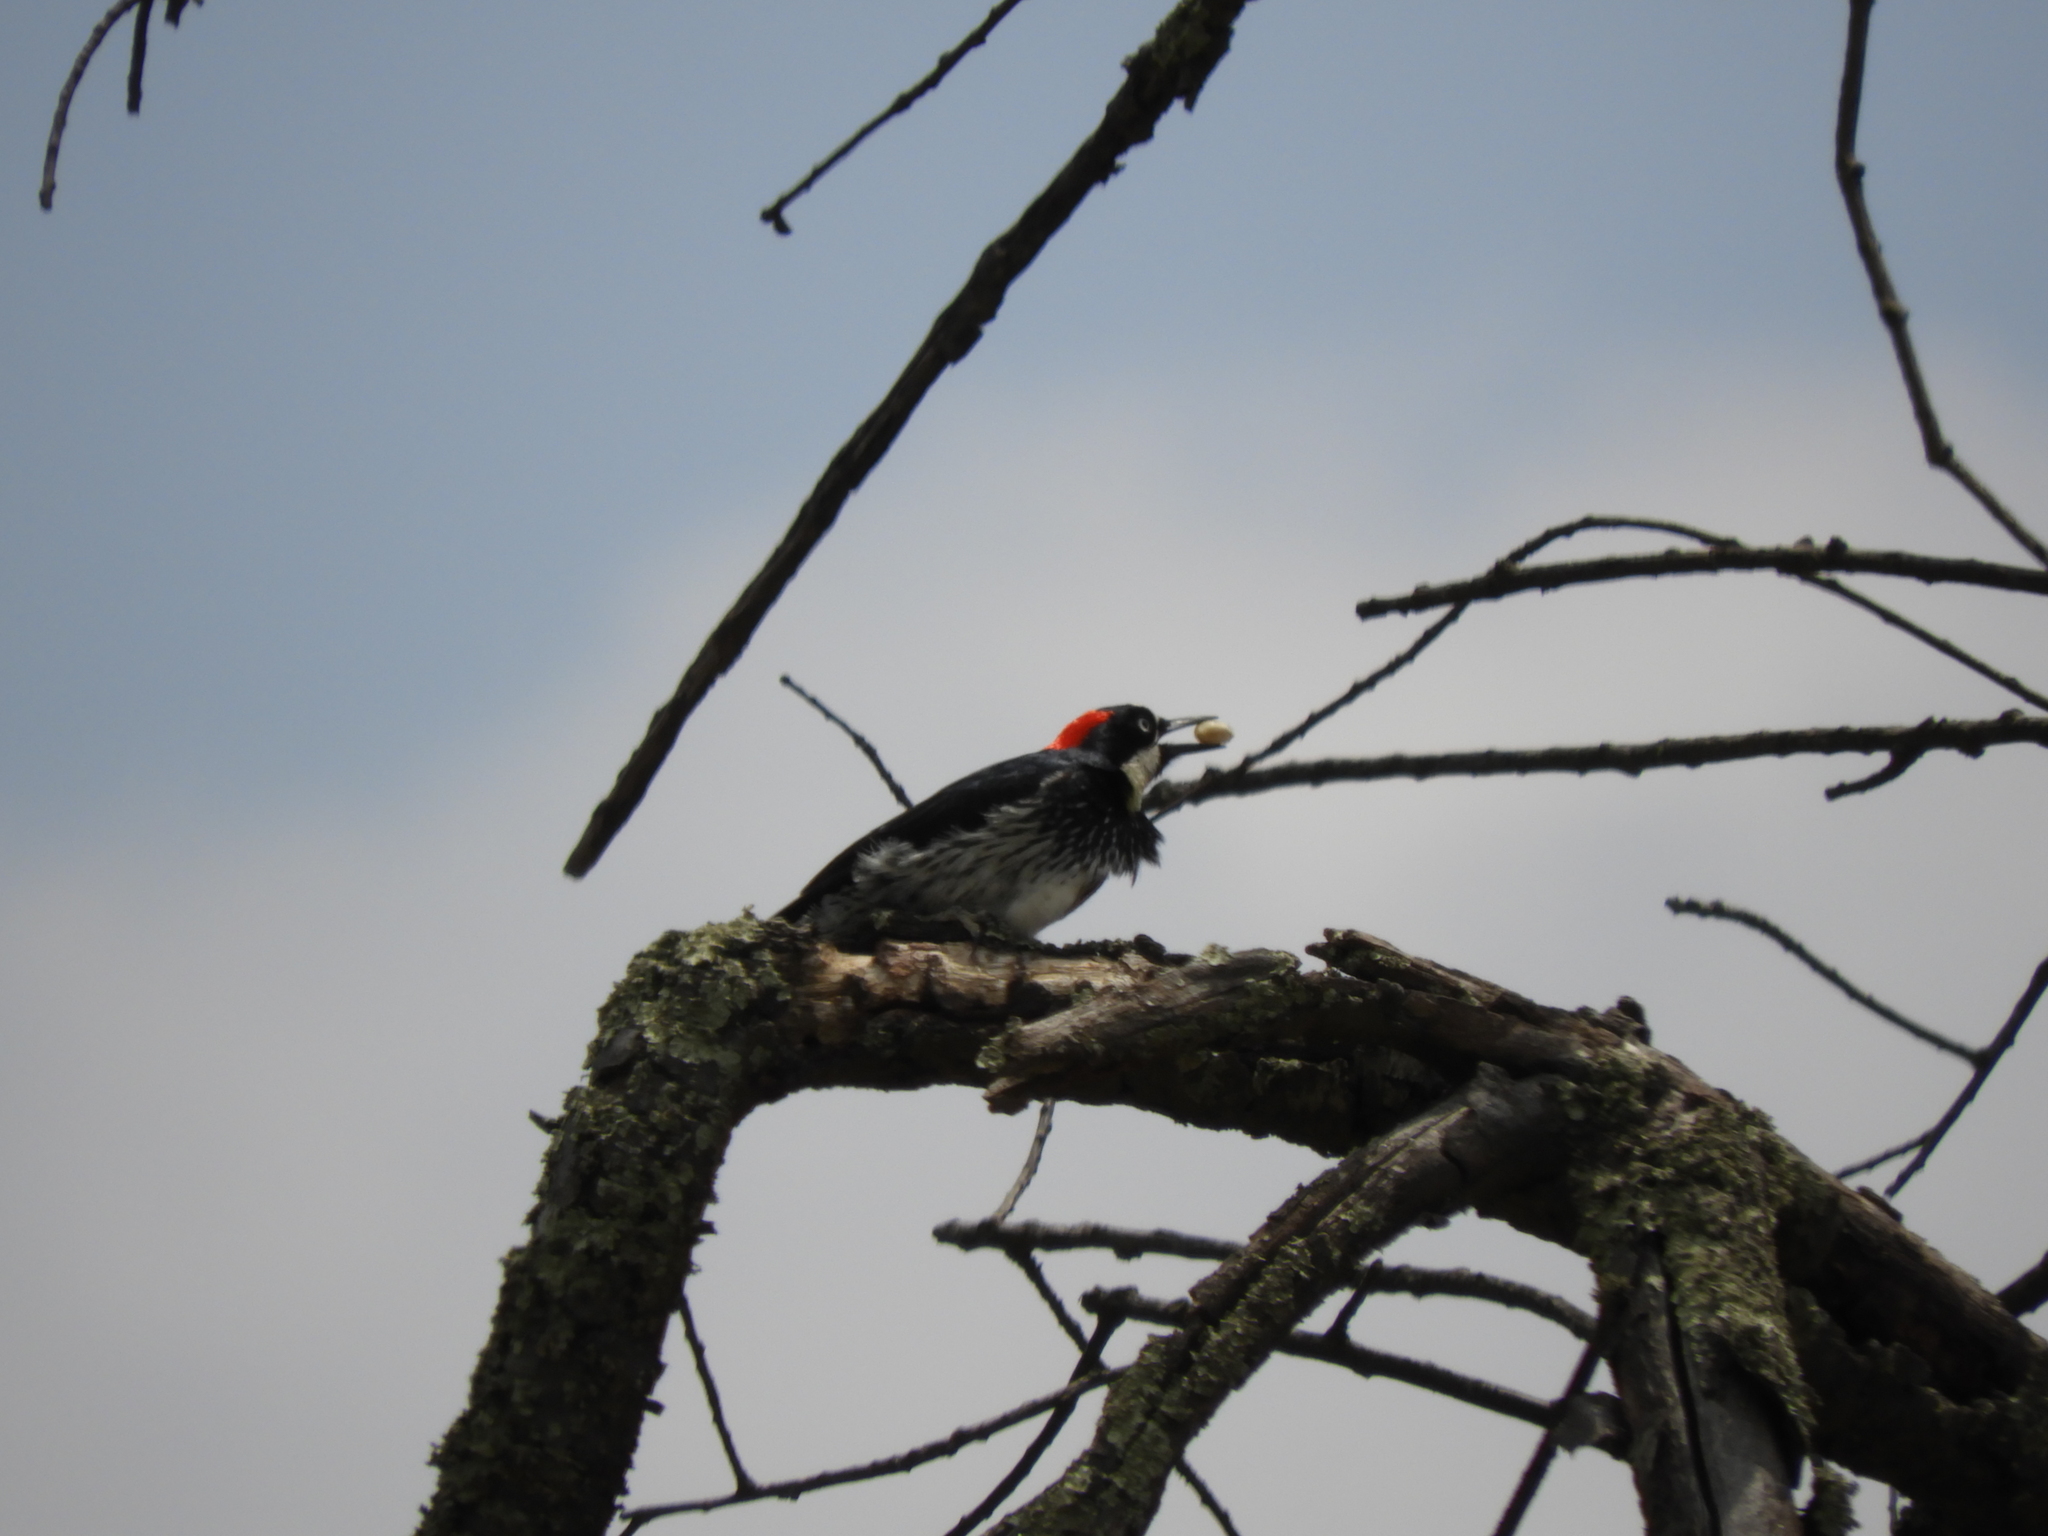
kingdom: Animalia
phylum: Chordata
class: Aves
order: Piciformes
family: Picidae
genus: Melanerpes
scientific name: Melanerpes formicivorus
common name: Acorn woodpecker
